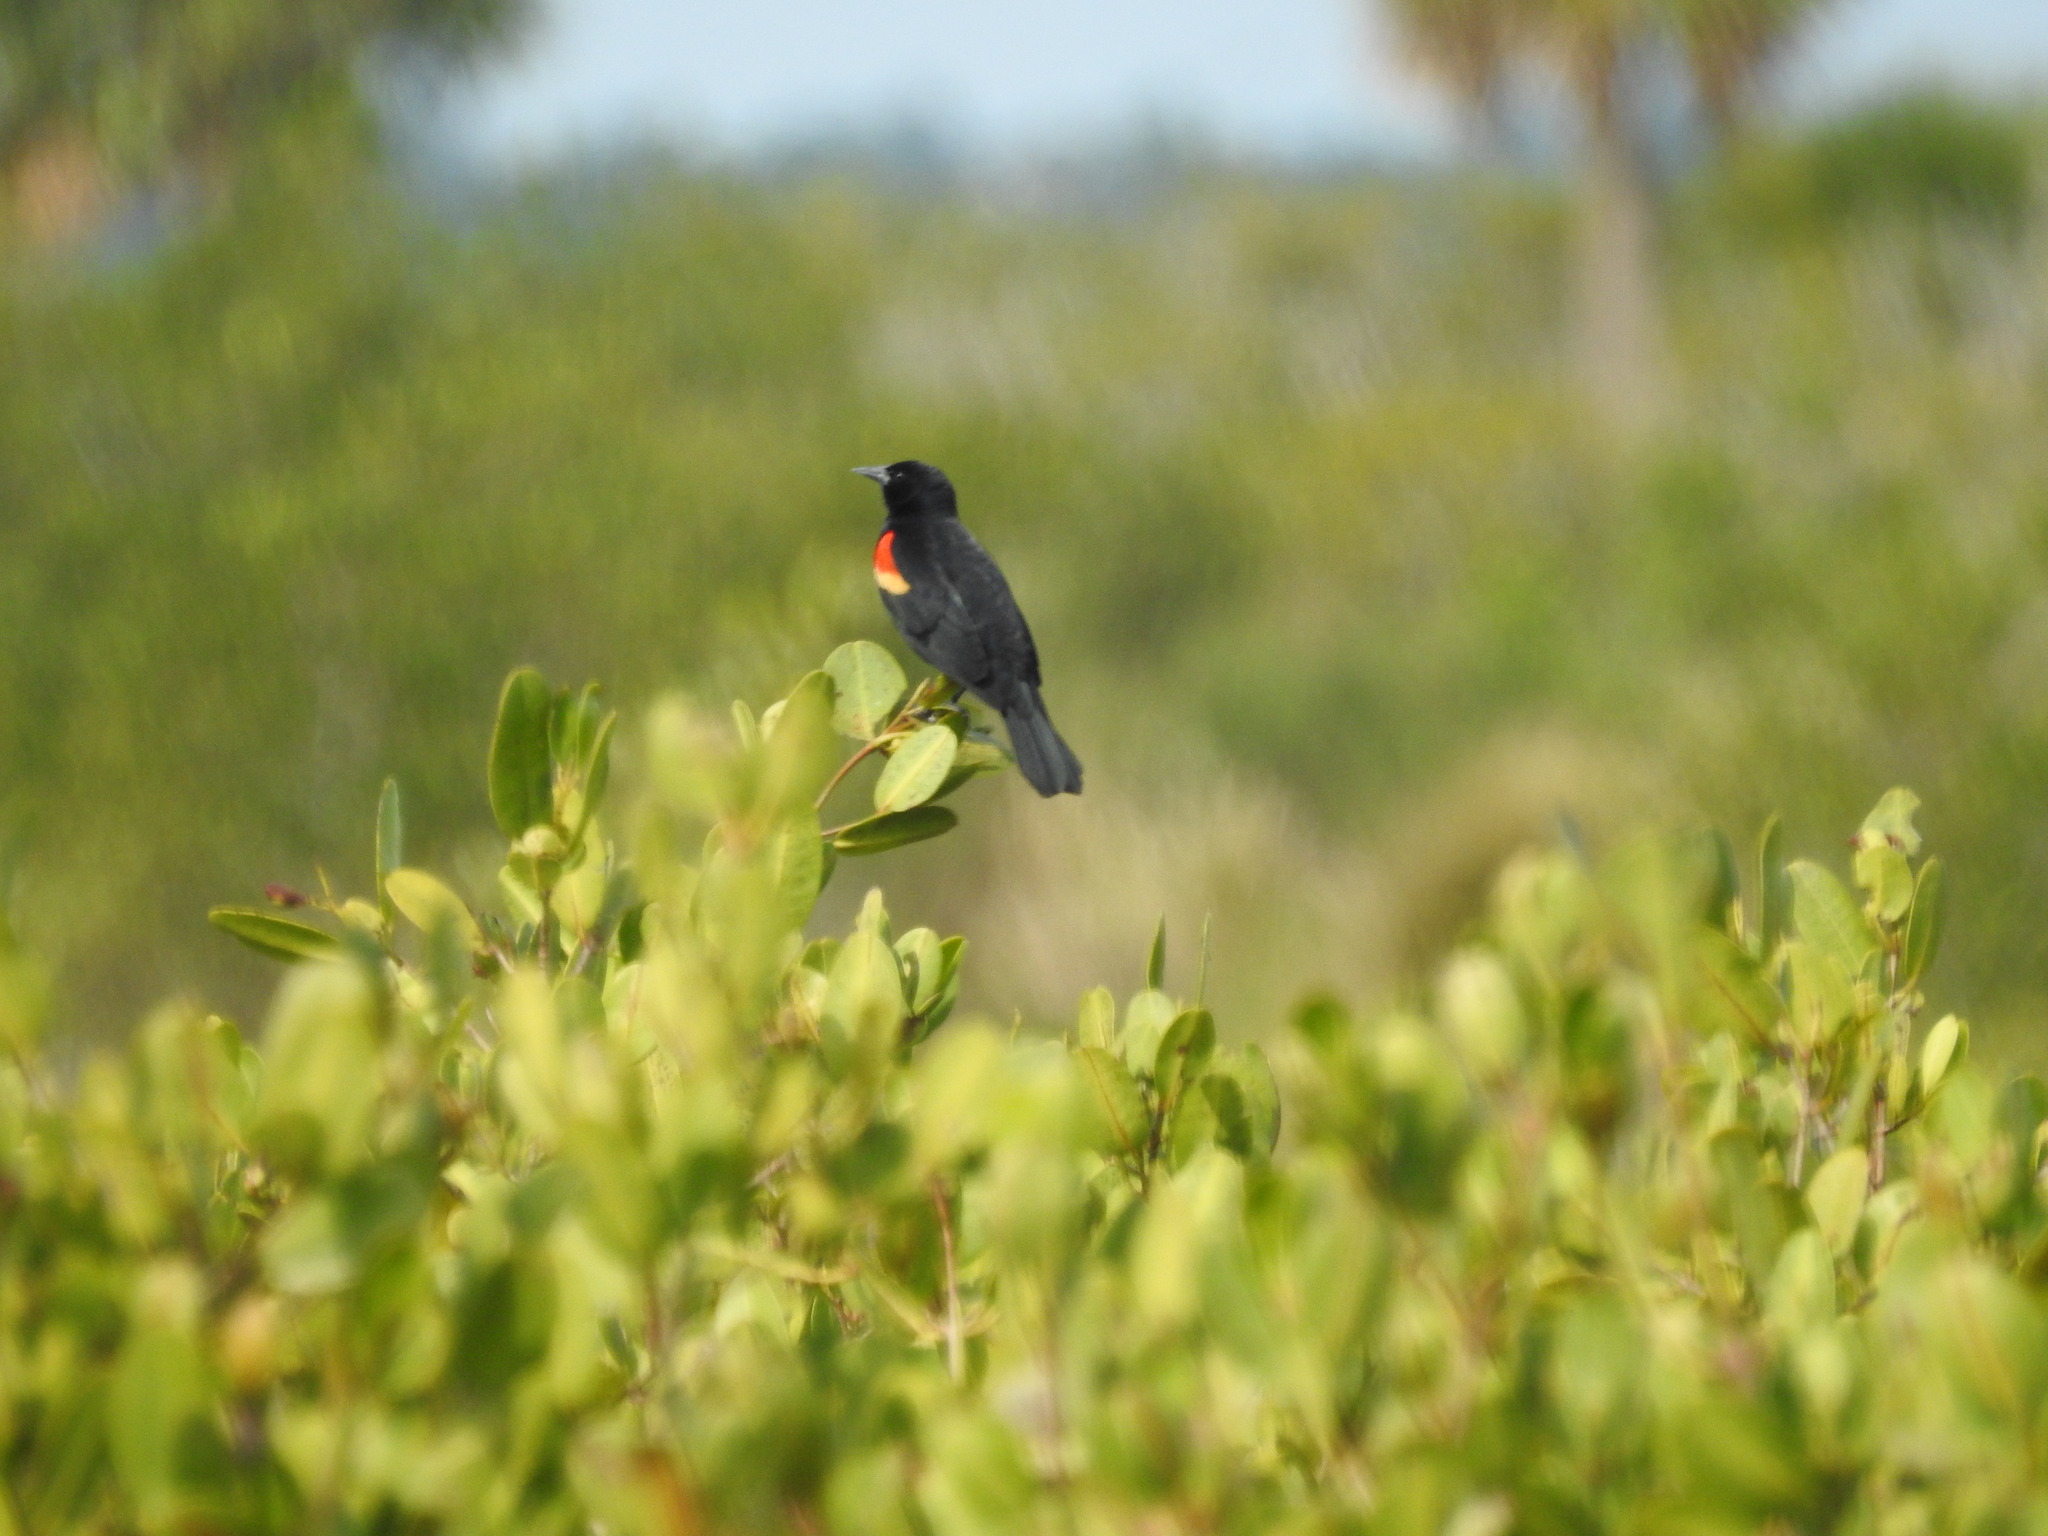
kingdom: Animalia
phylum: Chordata
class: Aves
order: Passeriformes
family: Icteridae
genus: Agelaius
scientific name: Agelaius phoeniceus
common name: Red-winged blackbird
